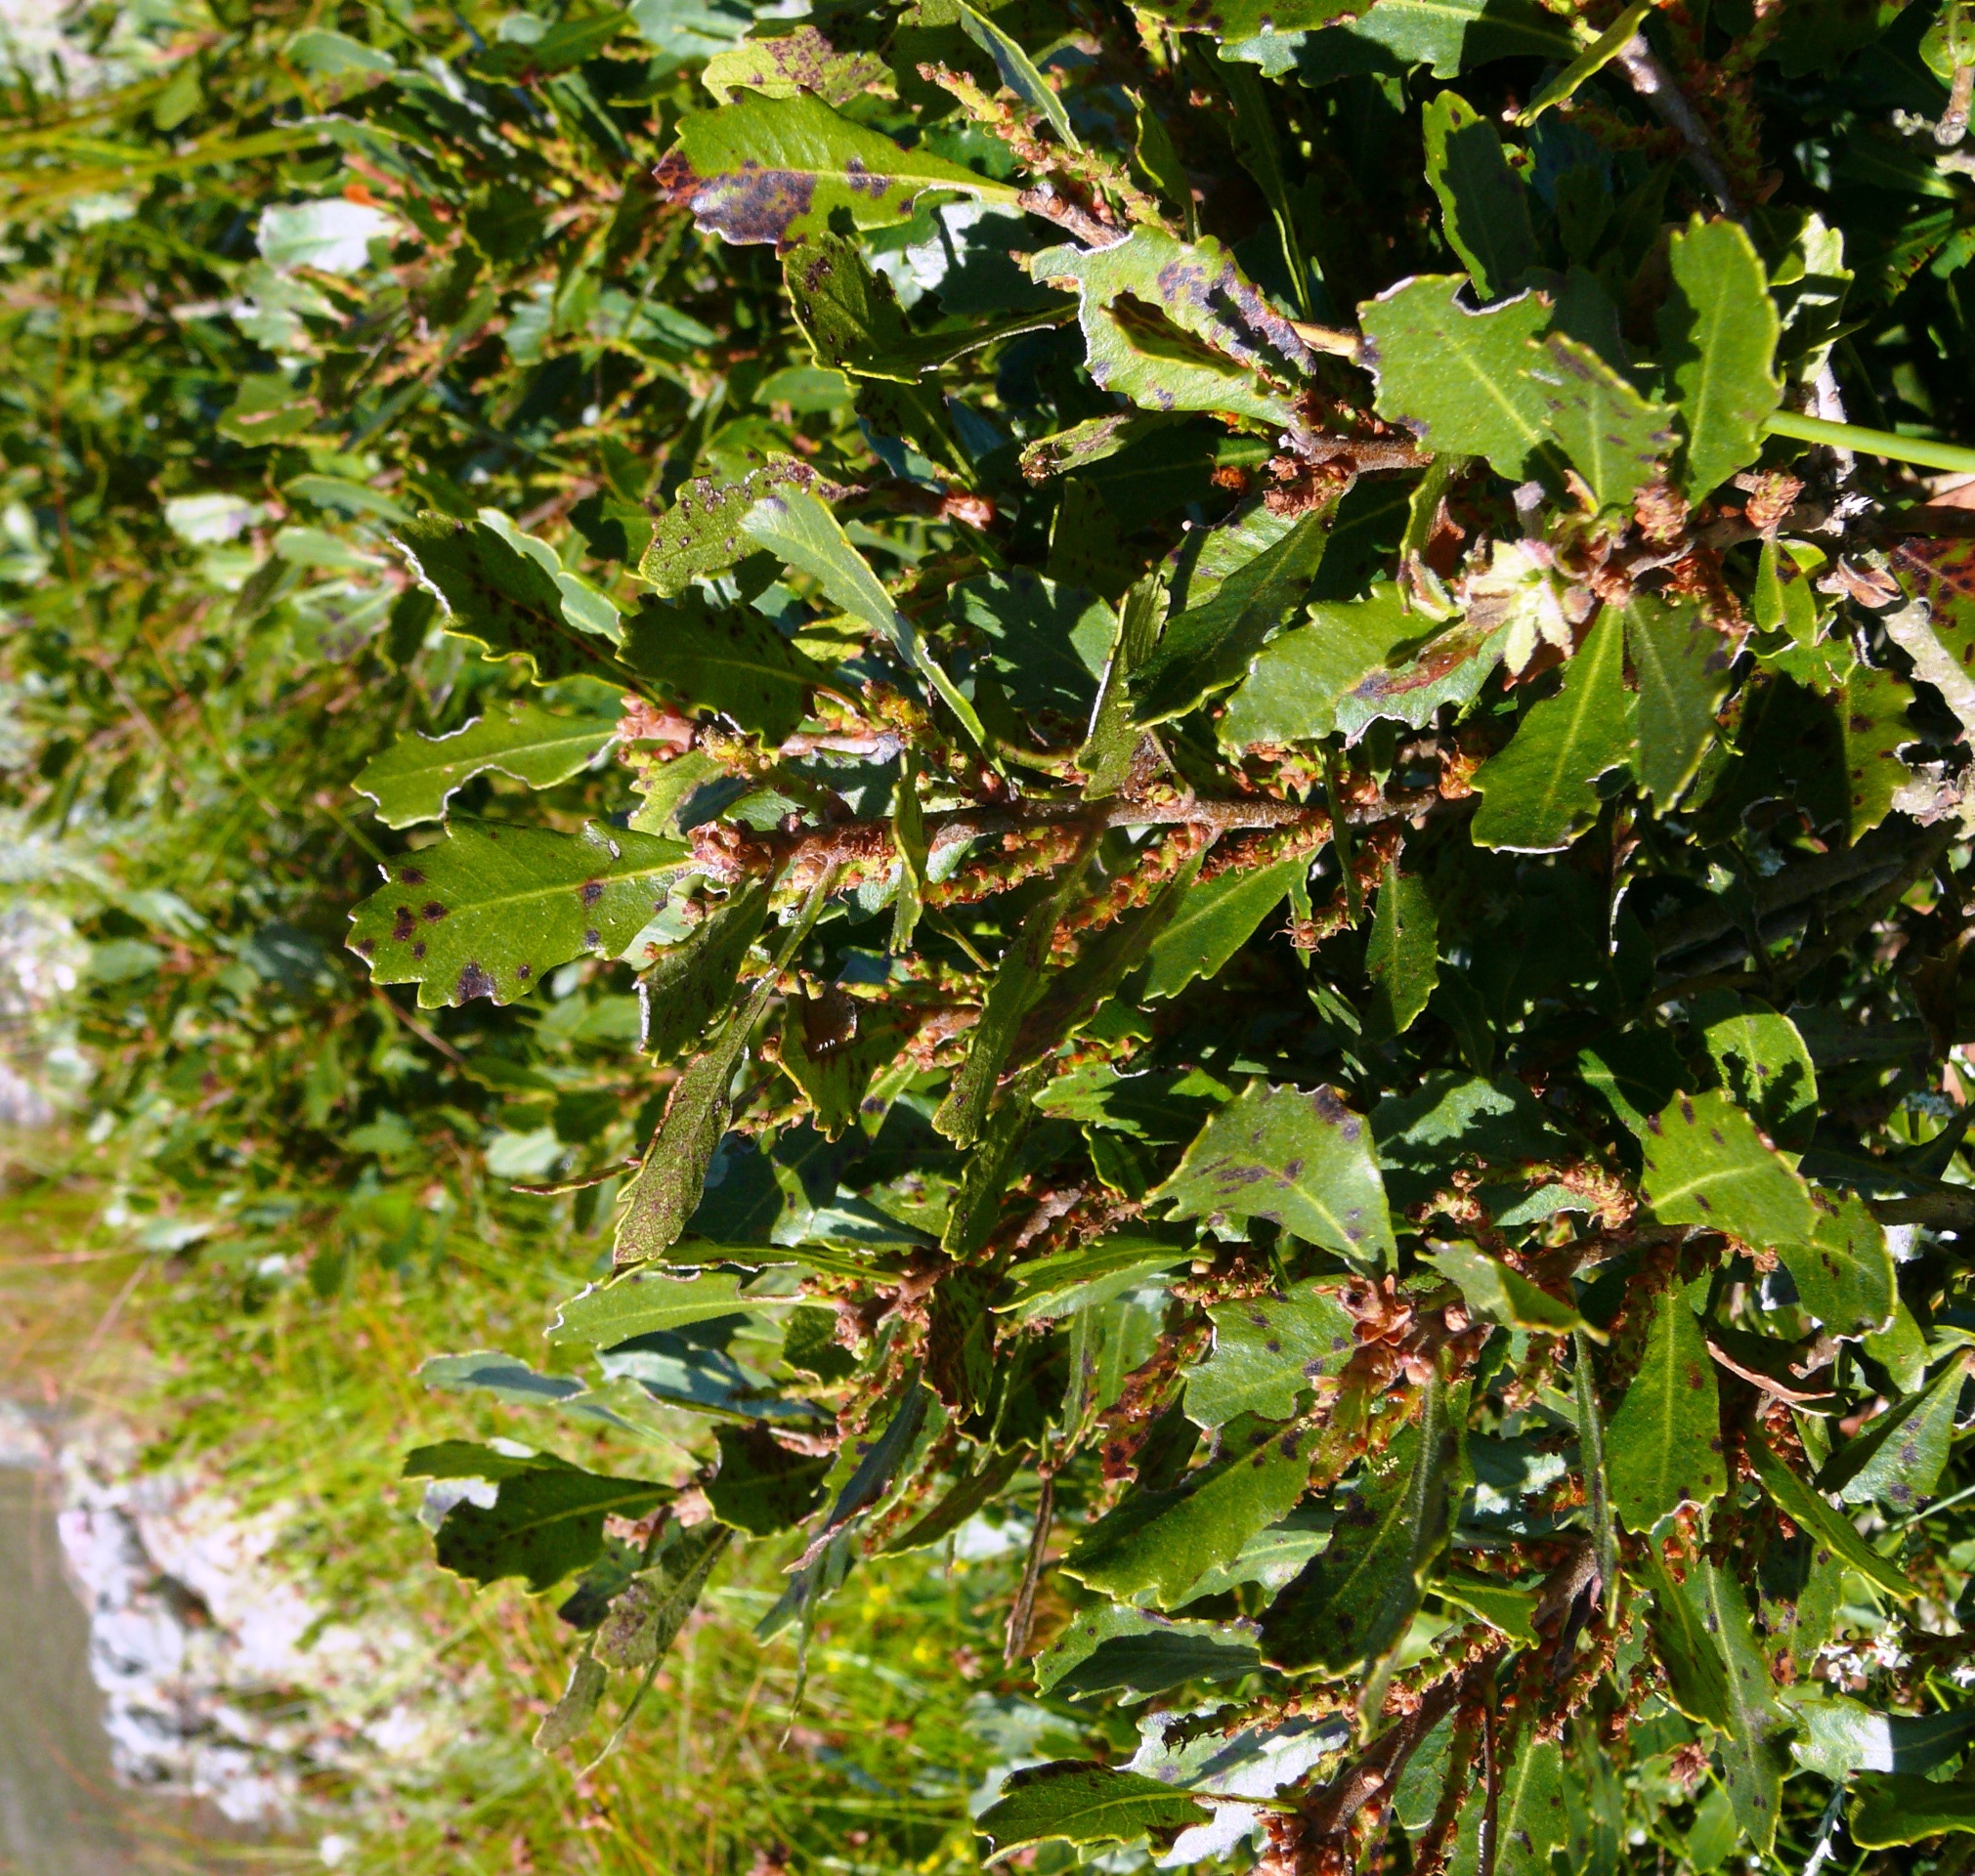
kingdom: Plantae
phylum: Tracheophyta
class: Magnoliopsida
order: Fagales
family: Myricaceae
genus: Morella
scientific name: Morella diversifolia
